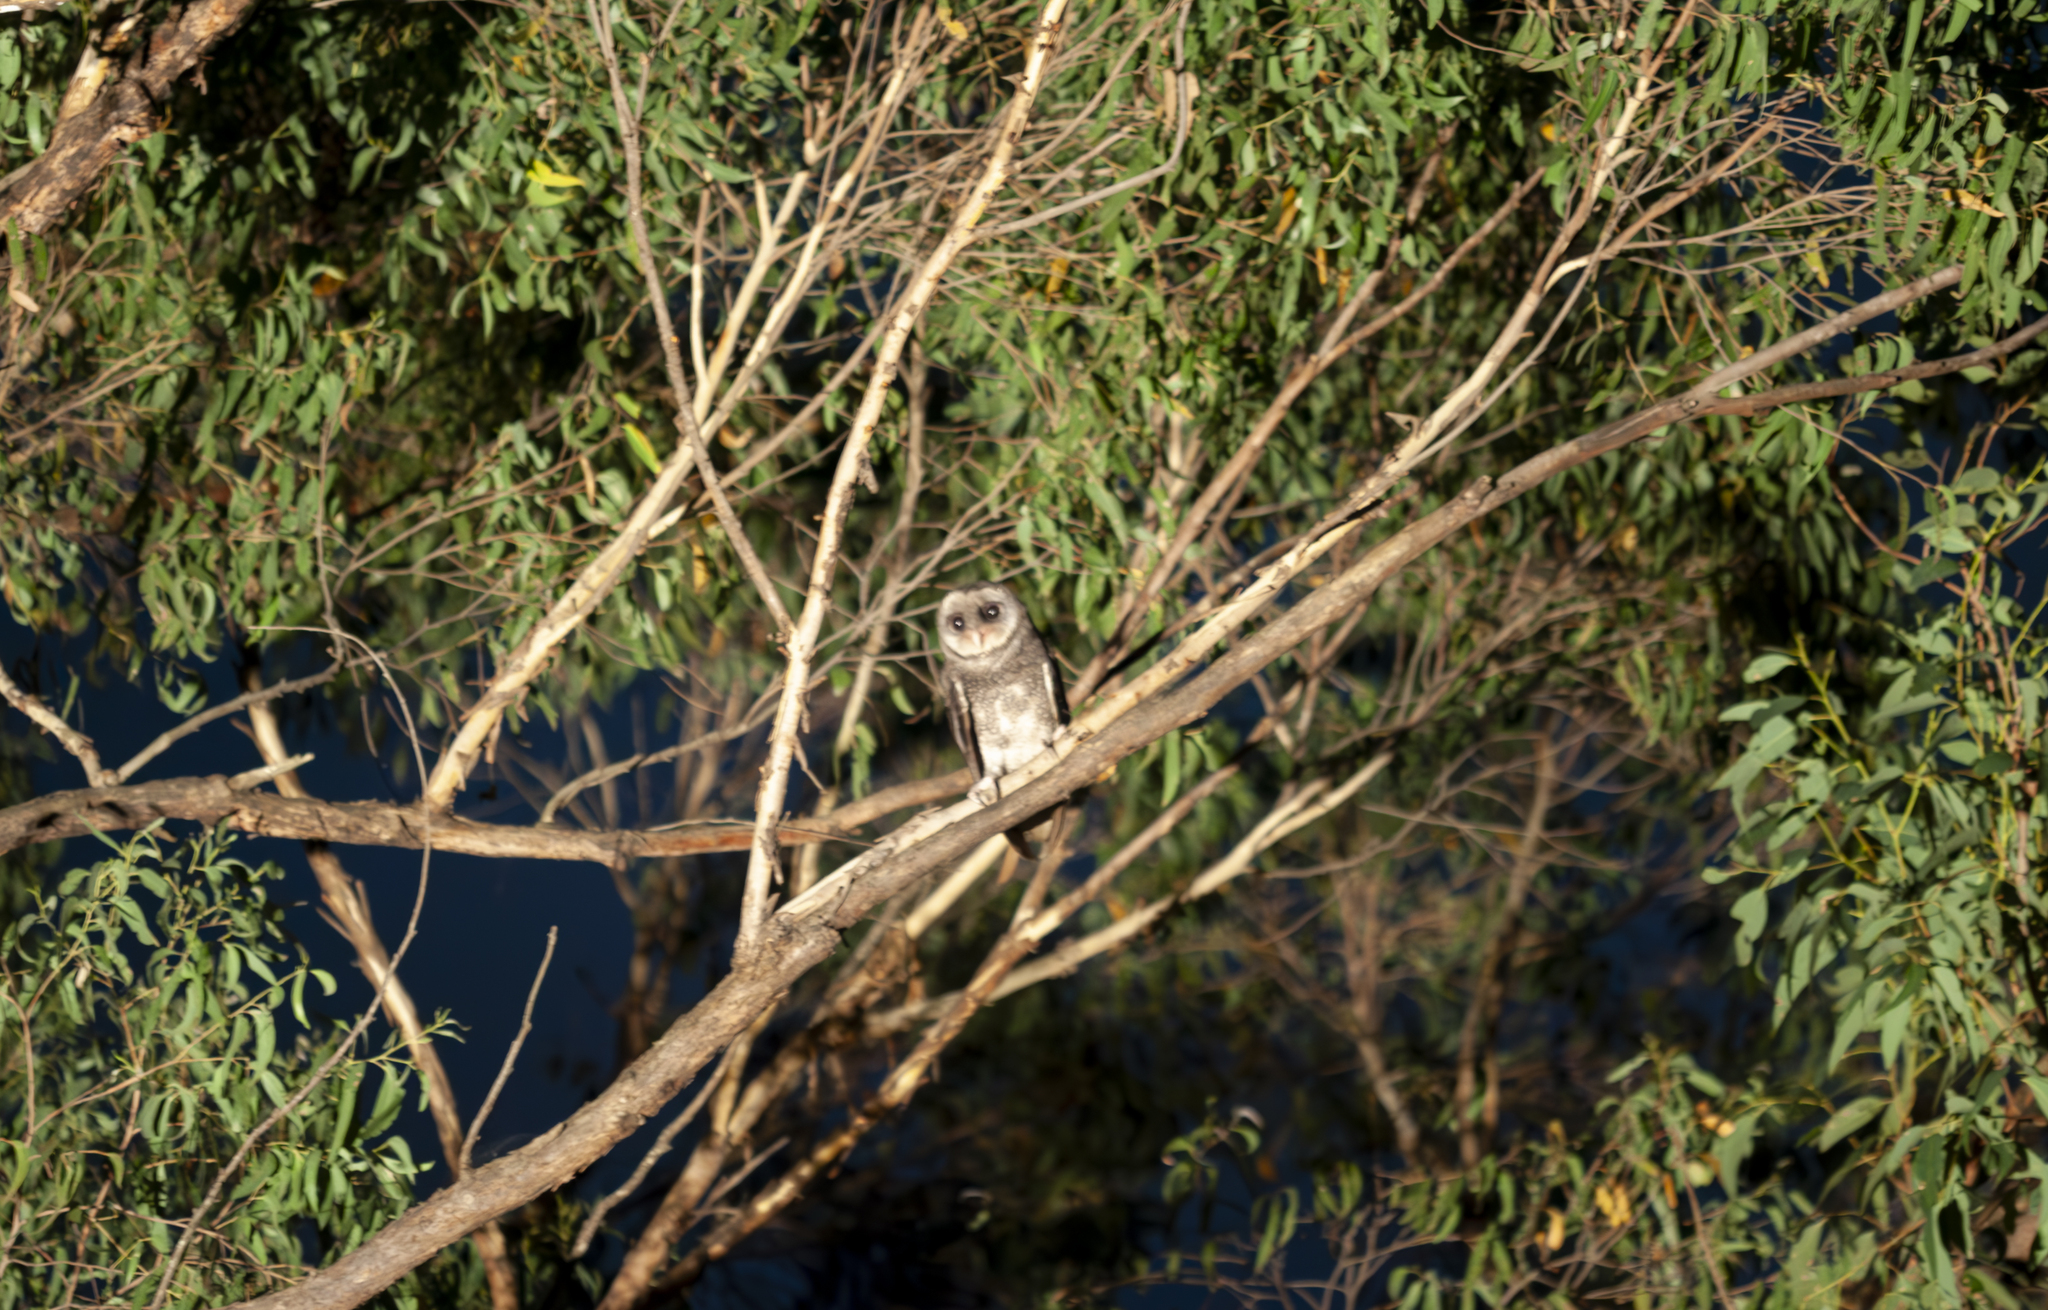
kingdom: Animalia
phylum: Chordata
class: Aves
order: Strigiformes
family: Tytonidae
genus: Tyto
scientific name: Tyto tenebricosa
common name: Greater sooty owl
